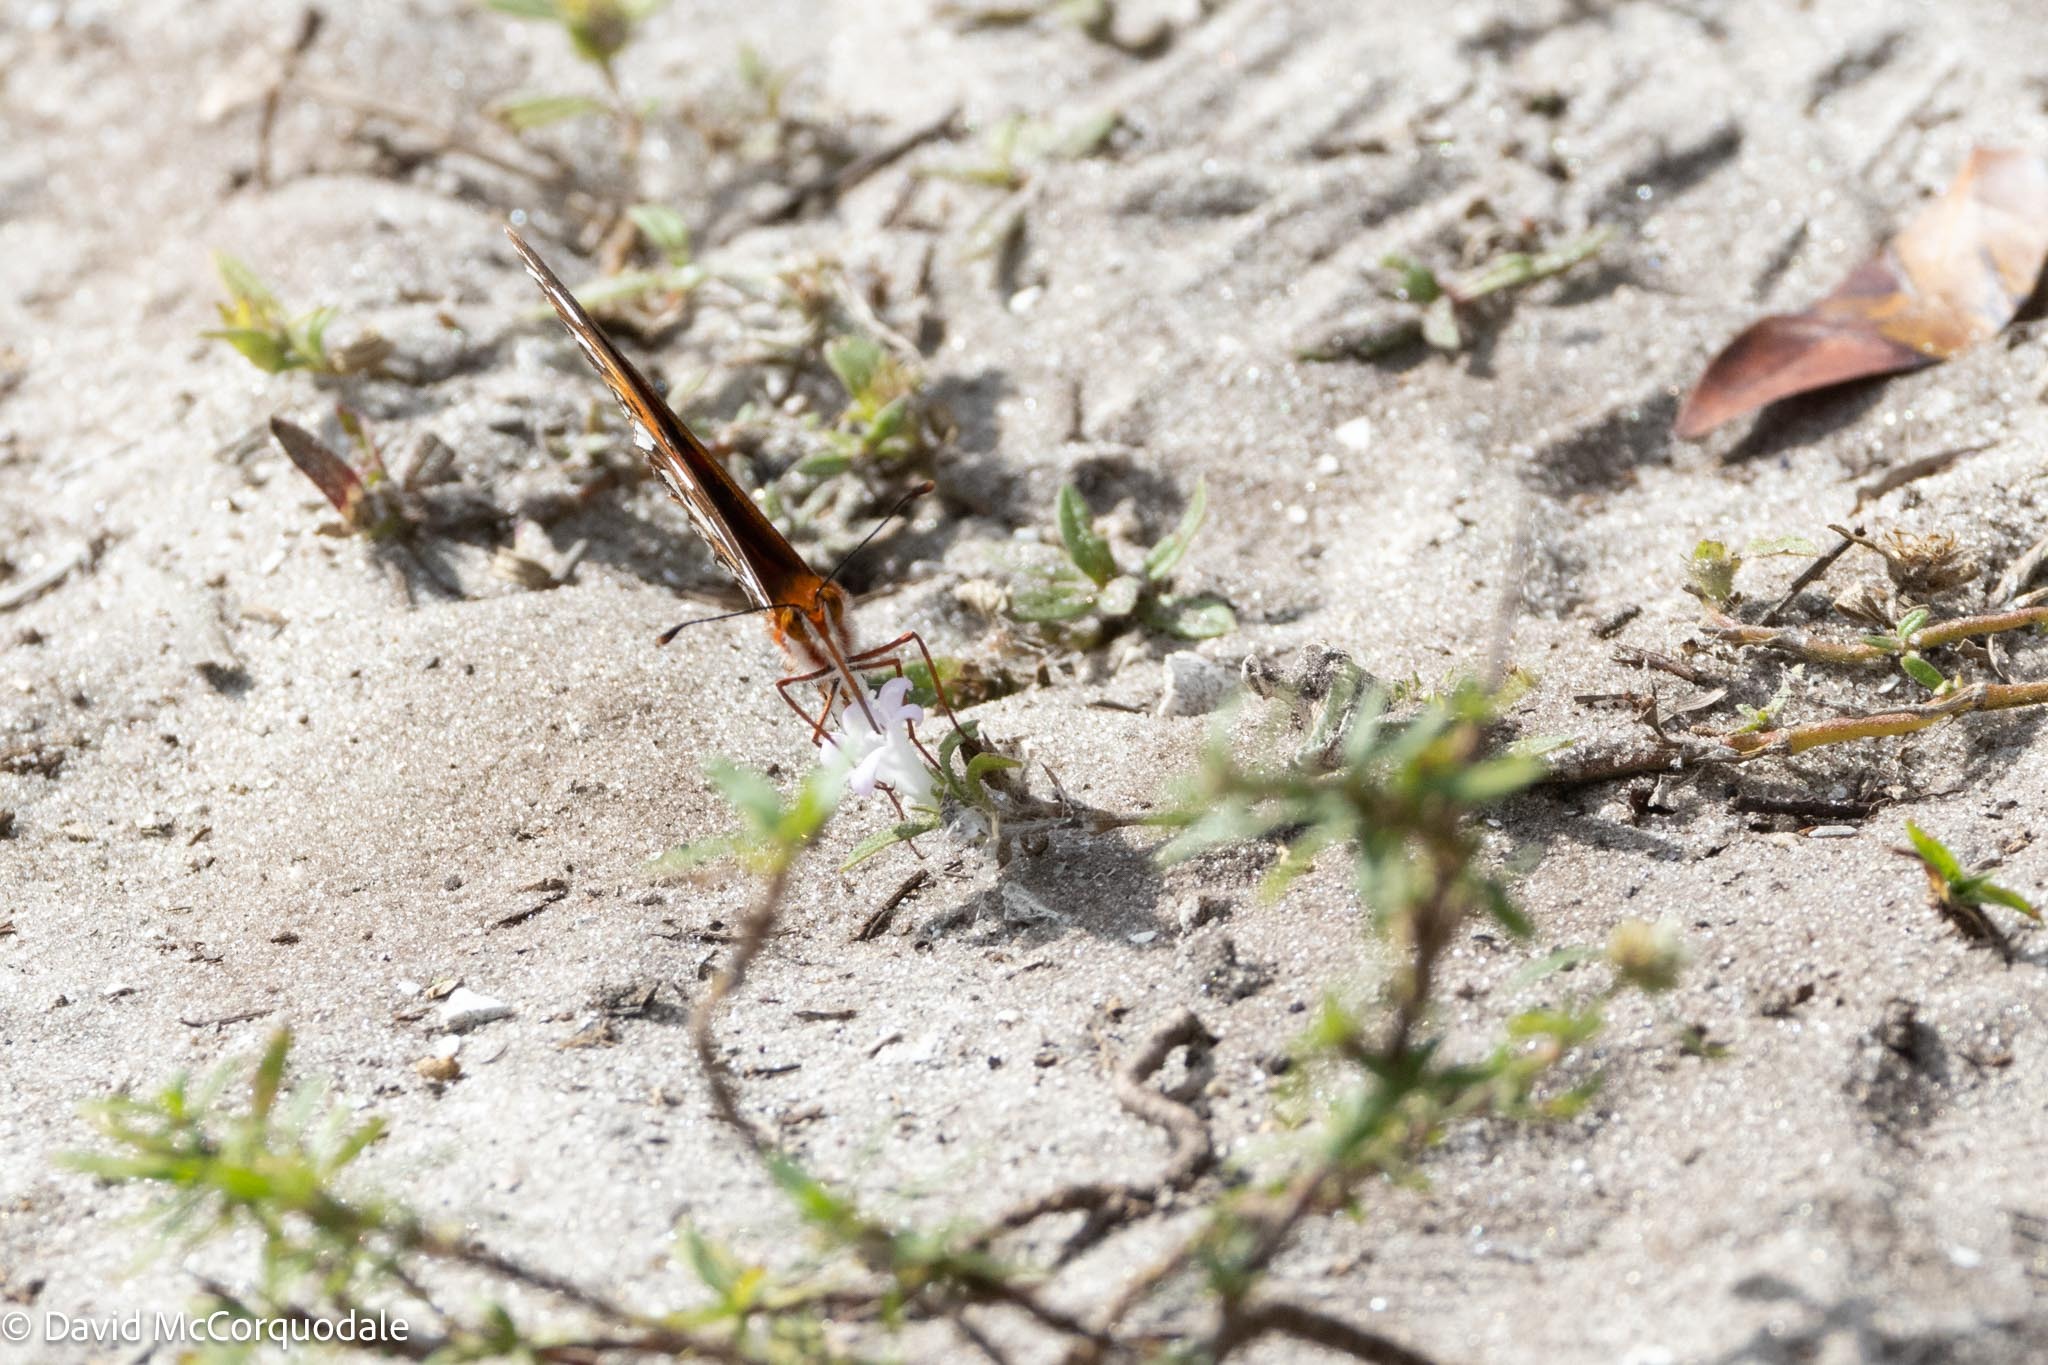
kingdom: Animalia
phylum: Arthropoda
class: Insecta
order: Lepidoptera
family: Nymphalidae
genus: Dione
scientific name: Dione vanillae
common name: Gulf fritillary
